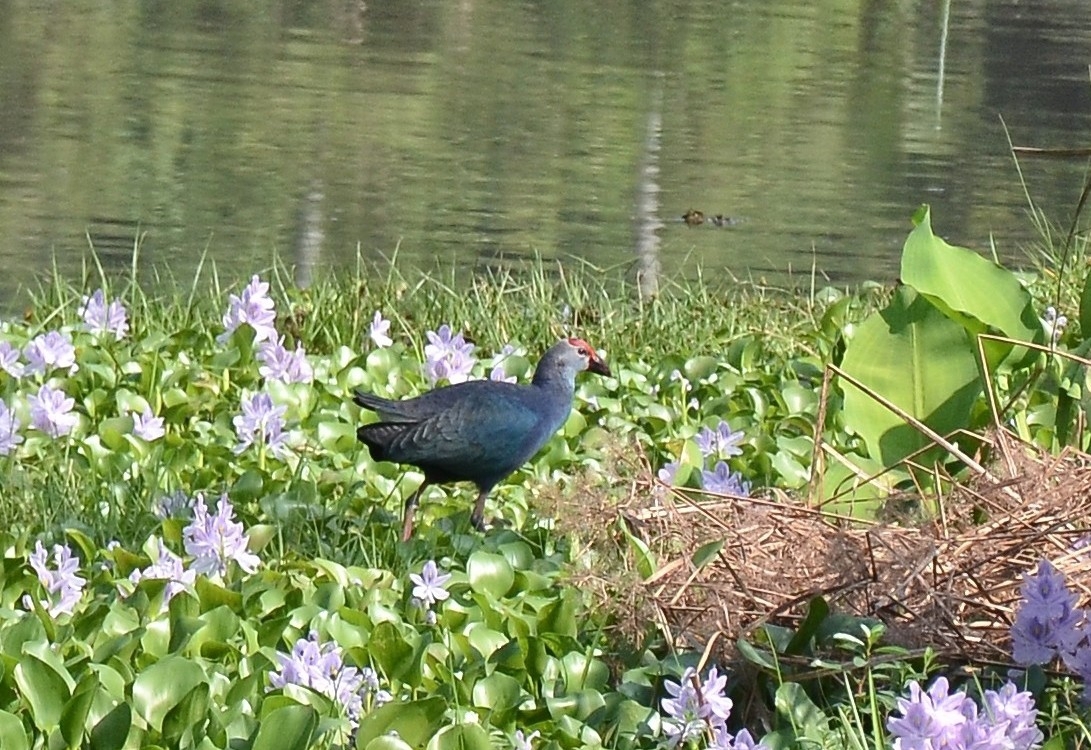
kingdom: Animalia
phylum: Chordata
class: Aves
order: Gruiformes
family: Rallidae
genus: Porphyrio
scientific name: Porphyrio porphyrio
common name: Purple swamphen
